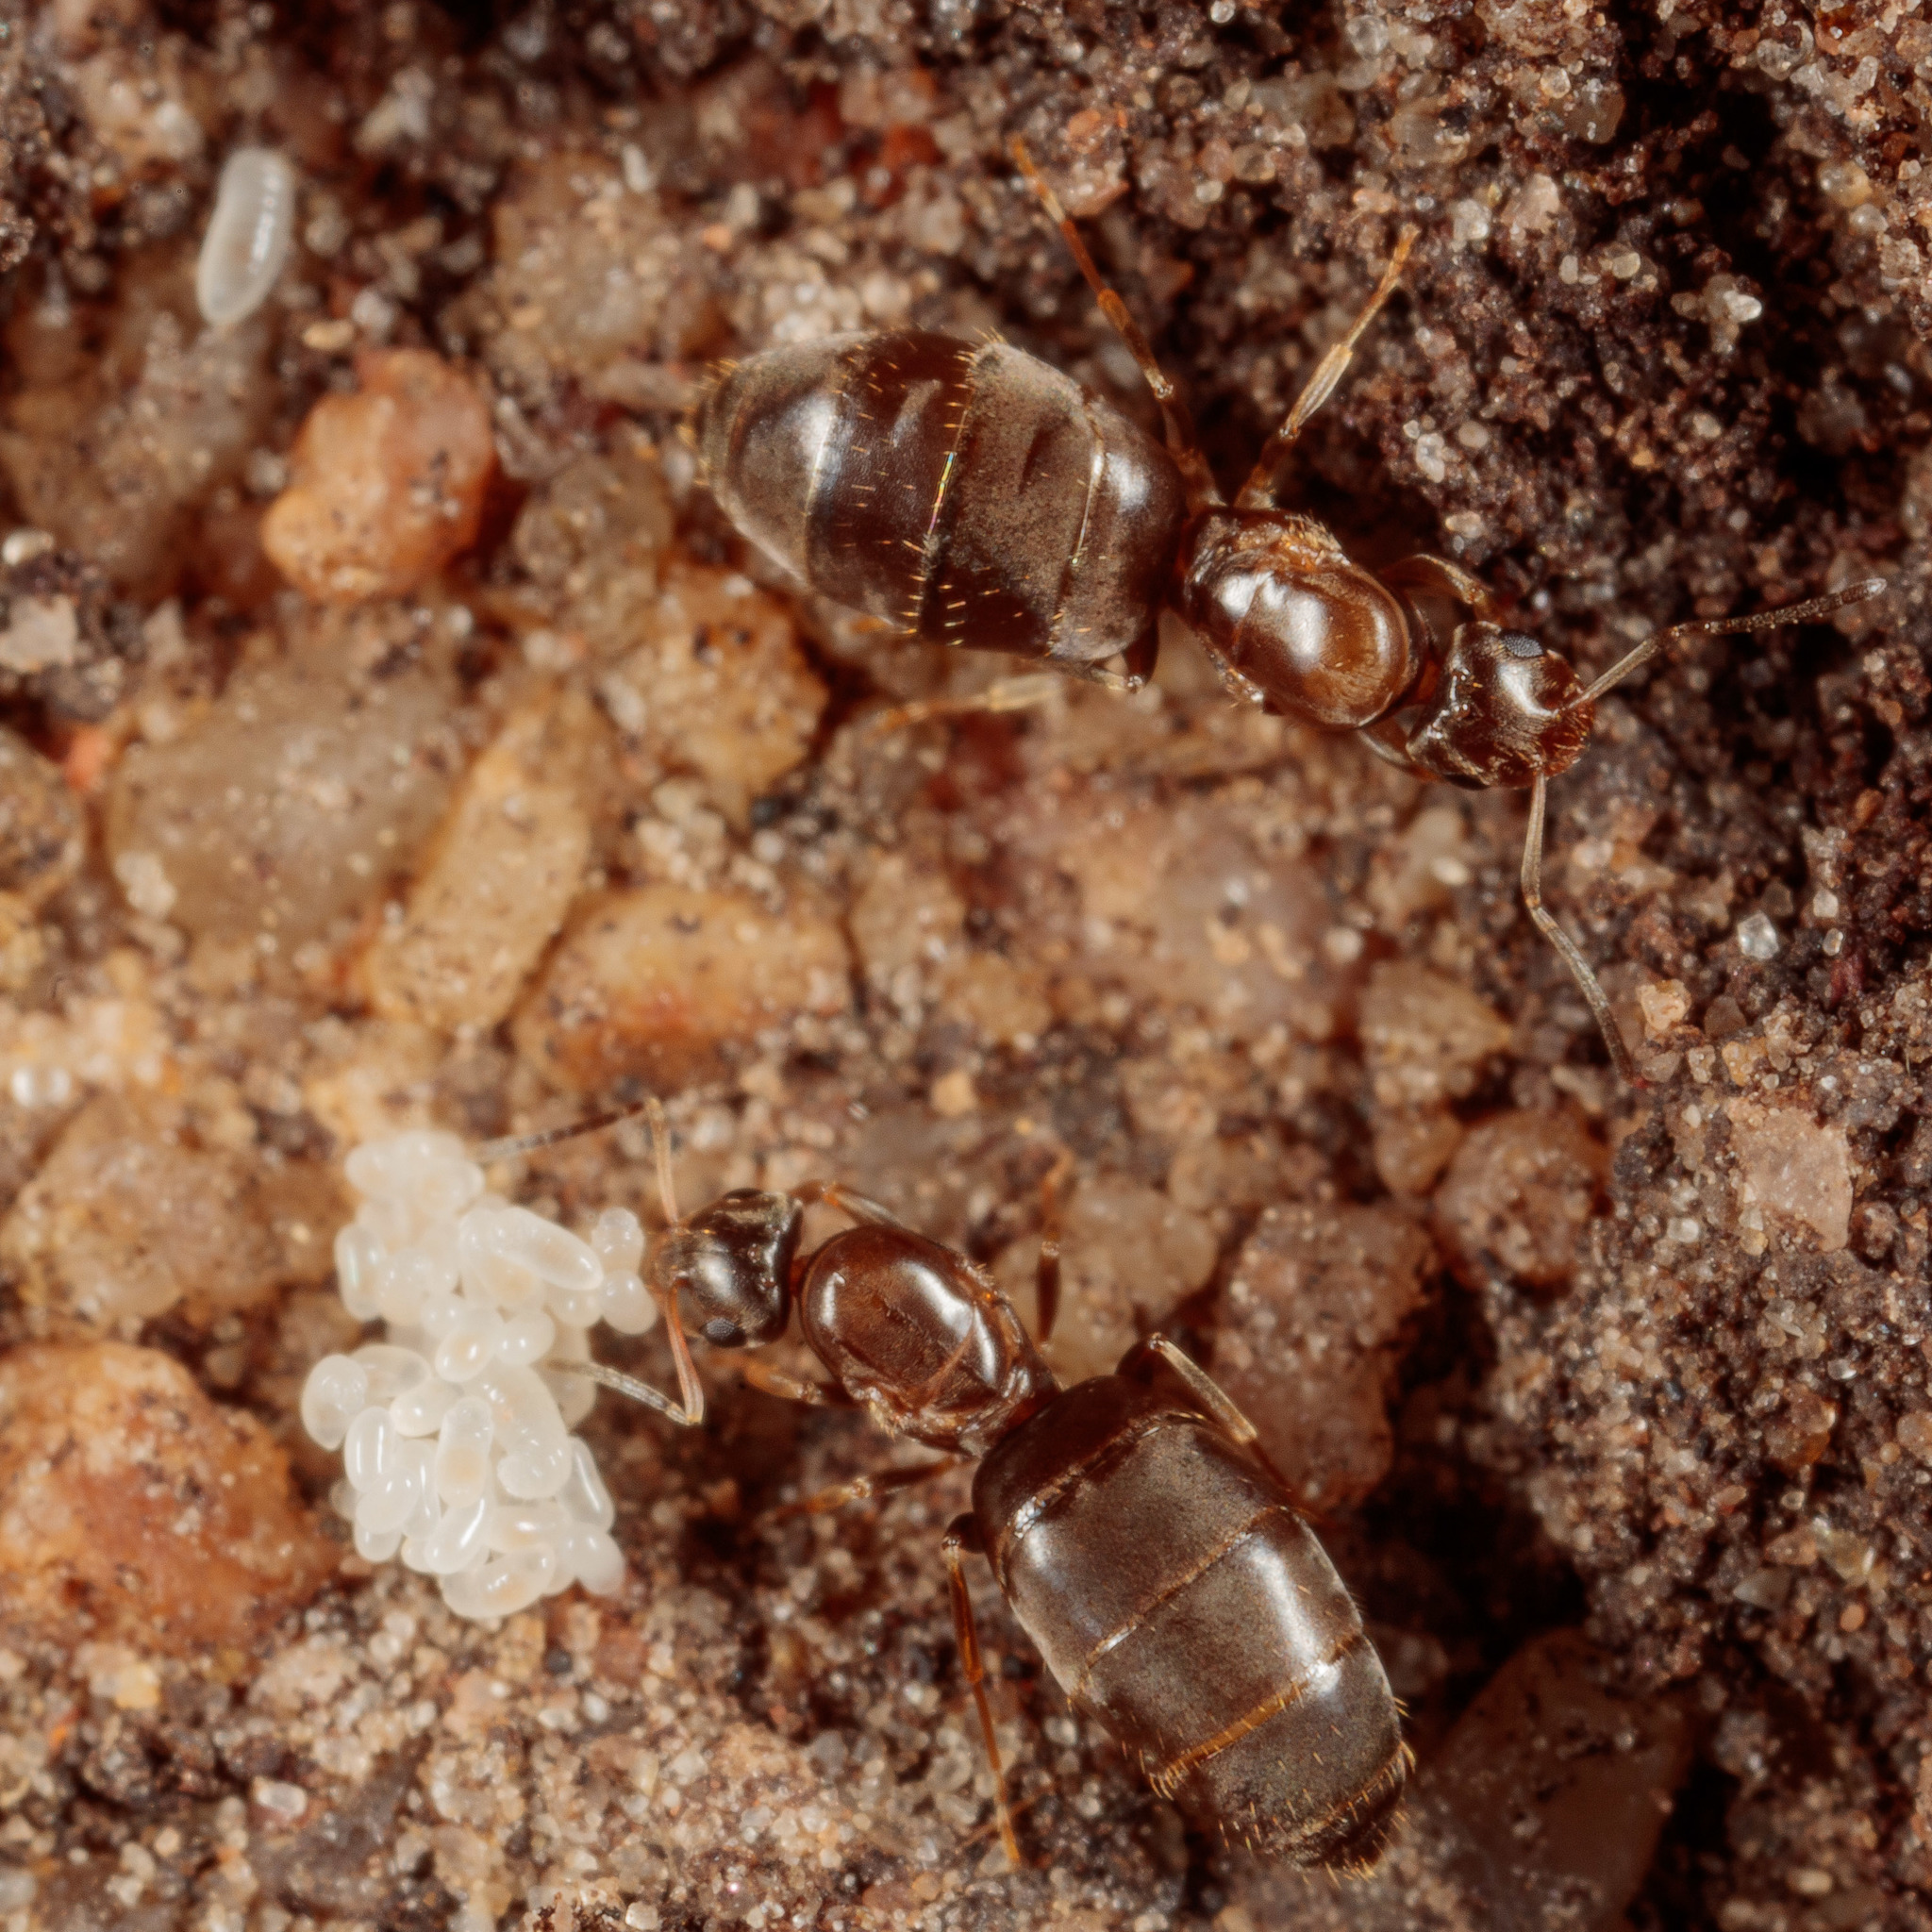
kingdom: Animalia
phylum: Arthropoda
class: Insecta
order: Hymenoptera
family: Formicidae
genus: Brachymyrmex
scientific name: Brachymyrmex patagonicus
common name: Dark rover ant
